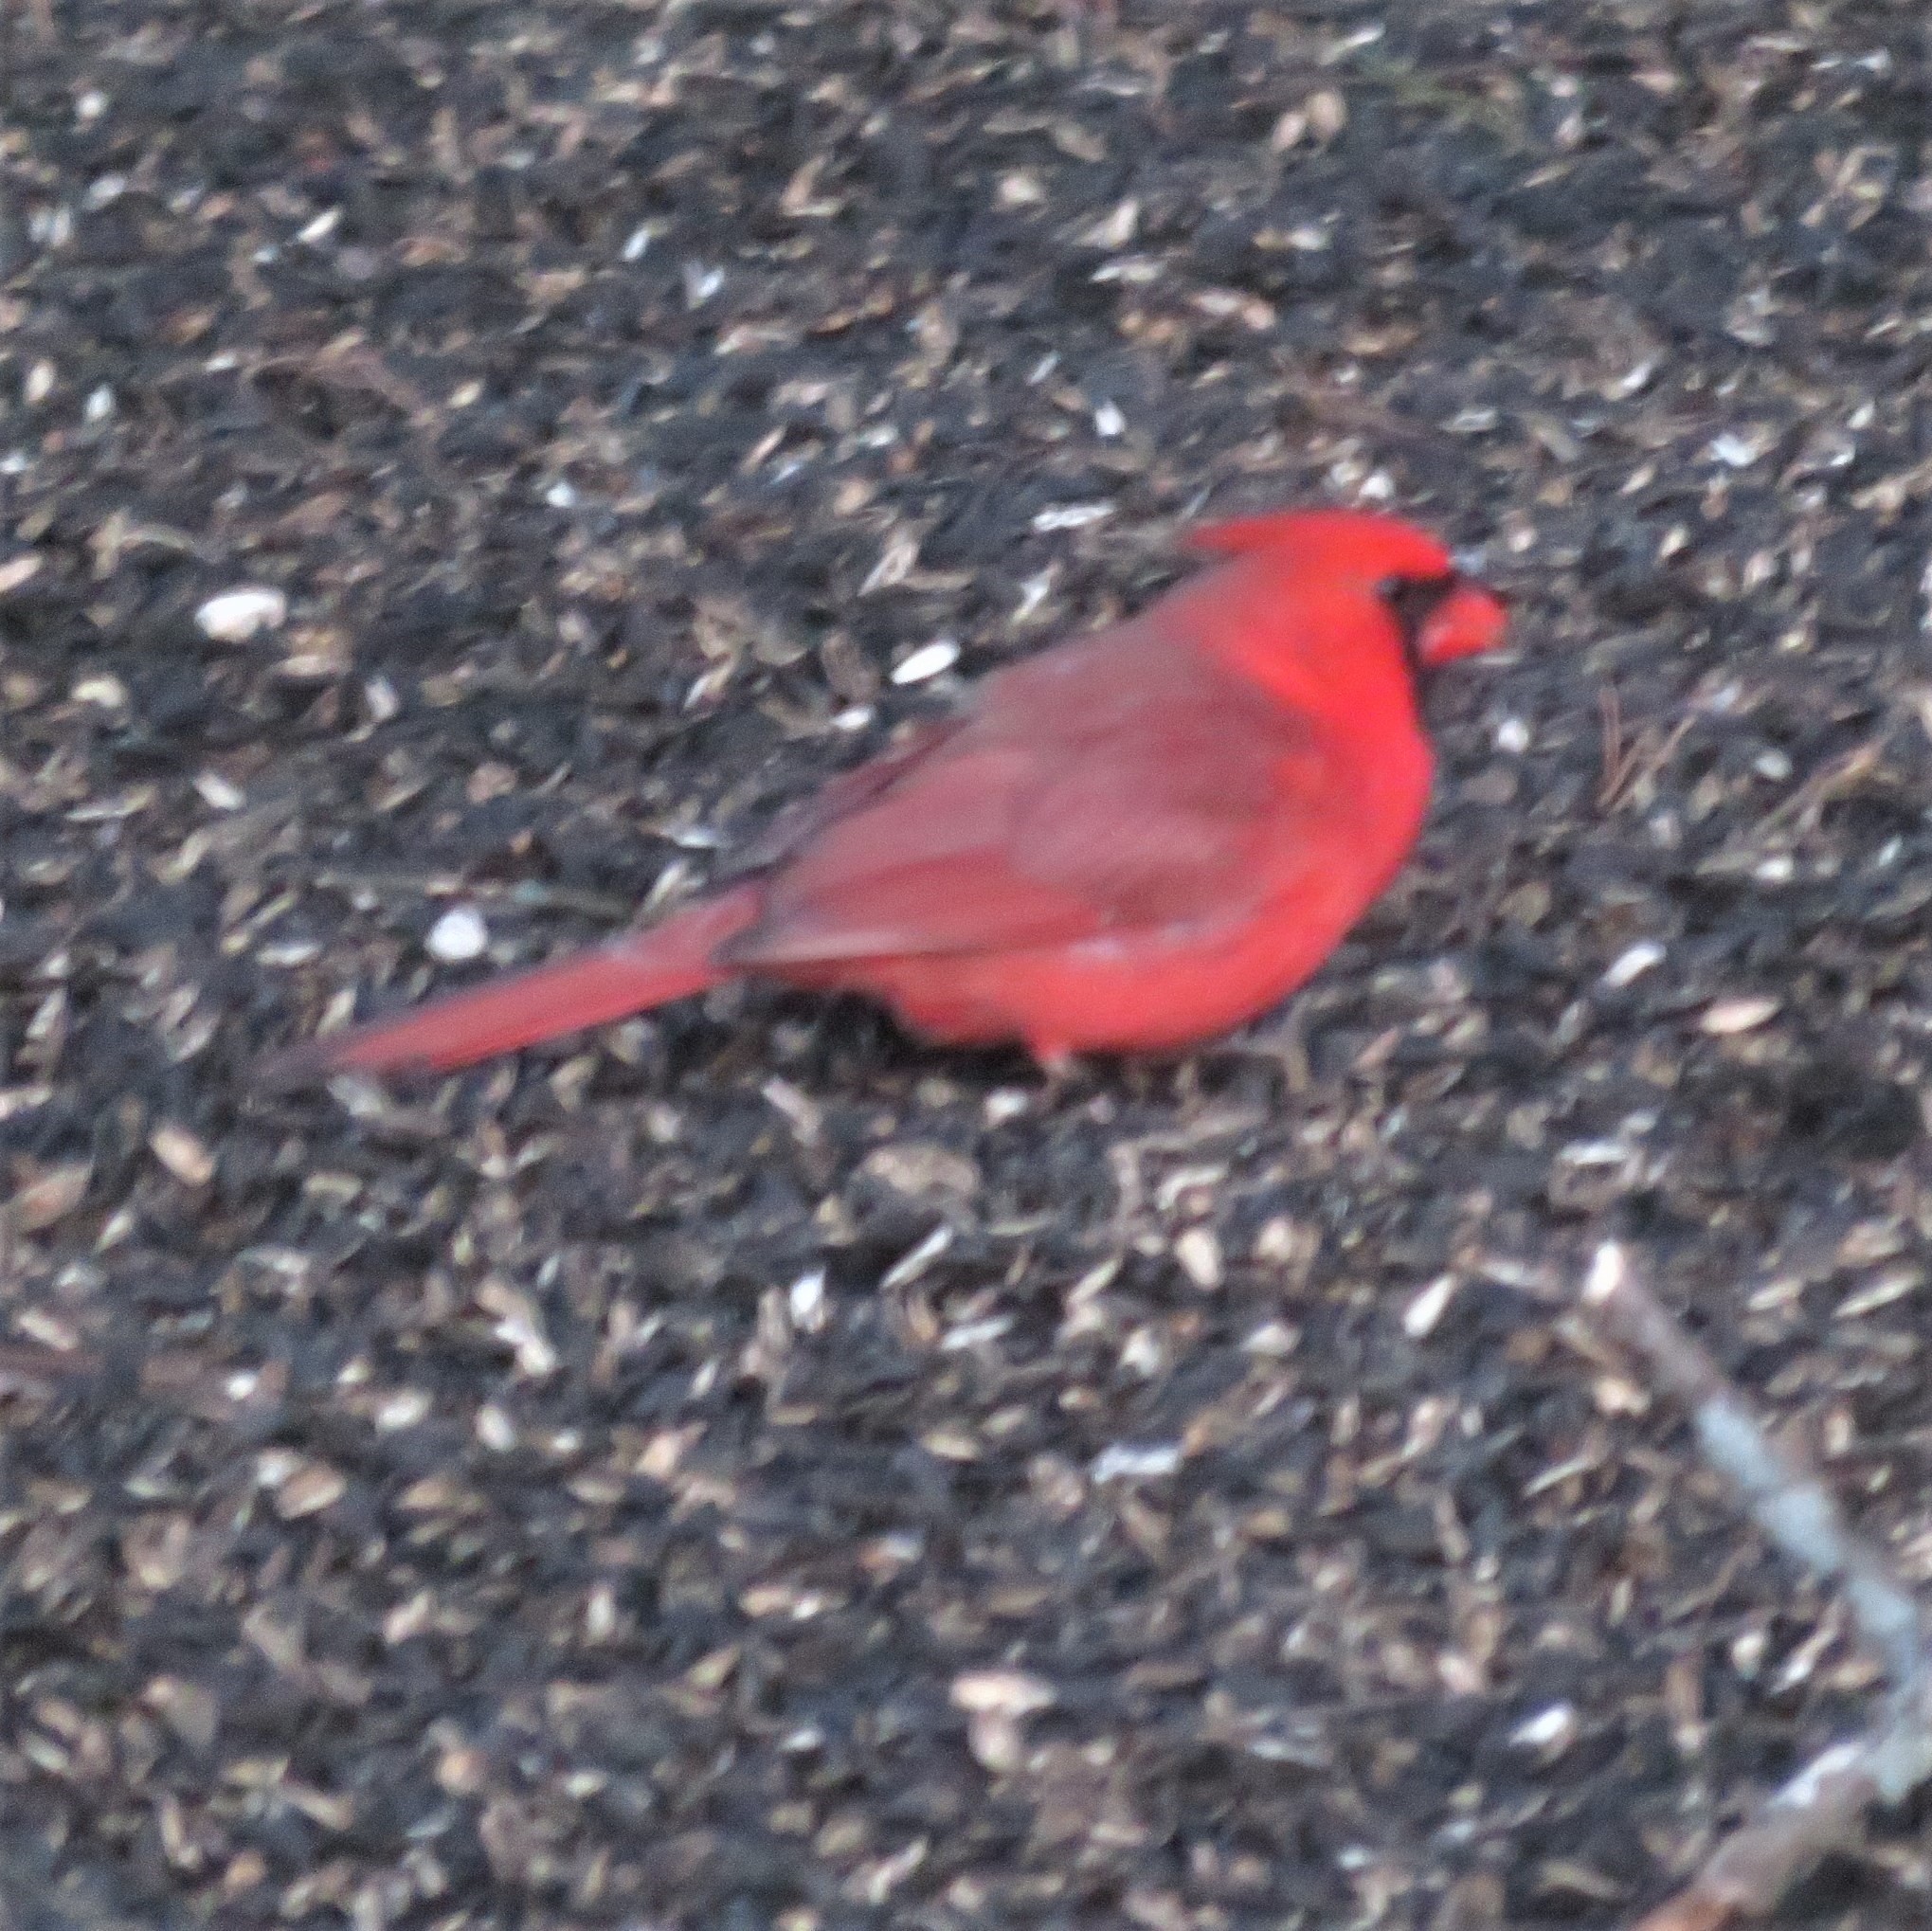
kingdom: Animalia
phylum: Chordata
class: Aves
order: Passeriformes
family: Cardinalidae
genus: Cardinalis
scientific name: Cardinalis cardinalis
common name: Northern cardinal
